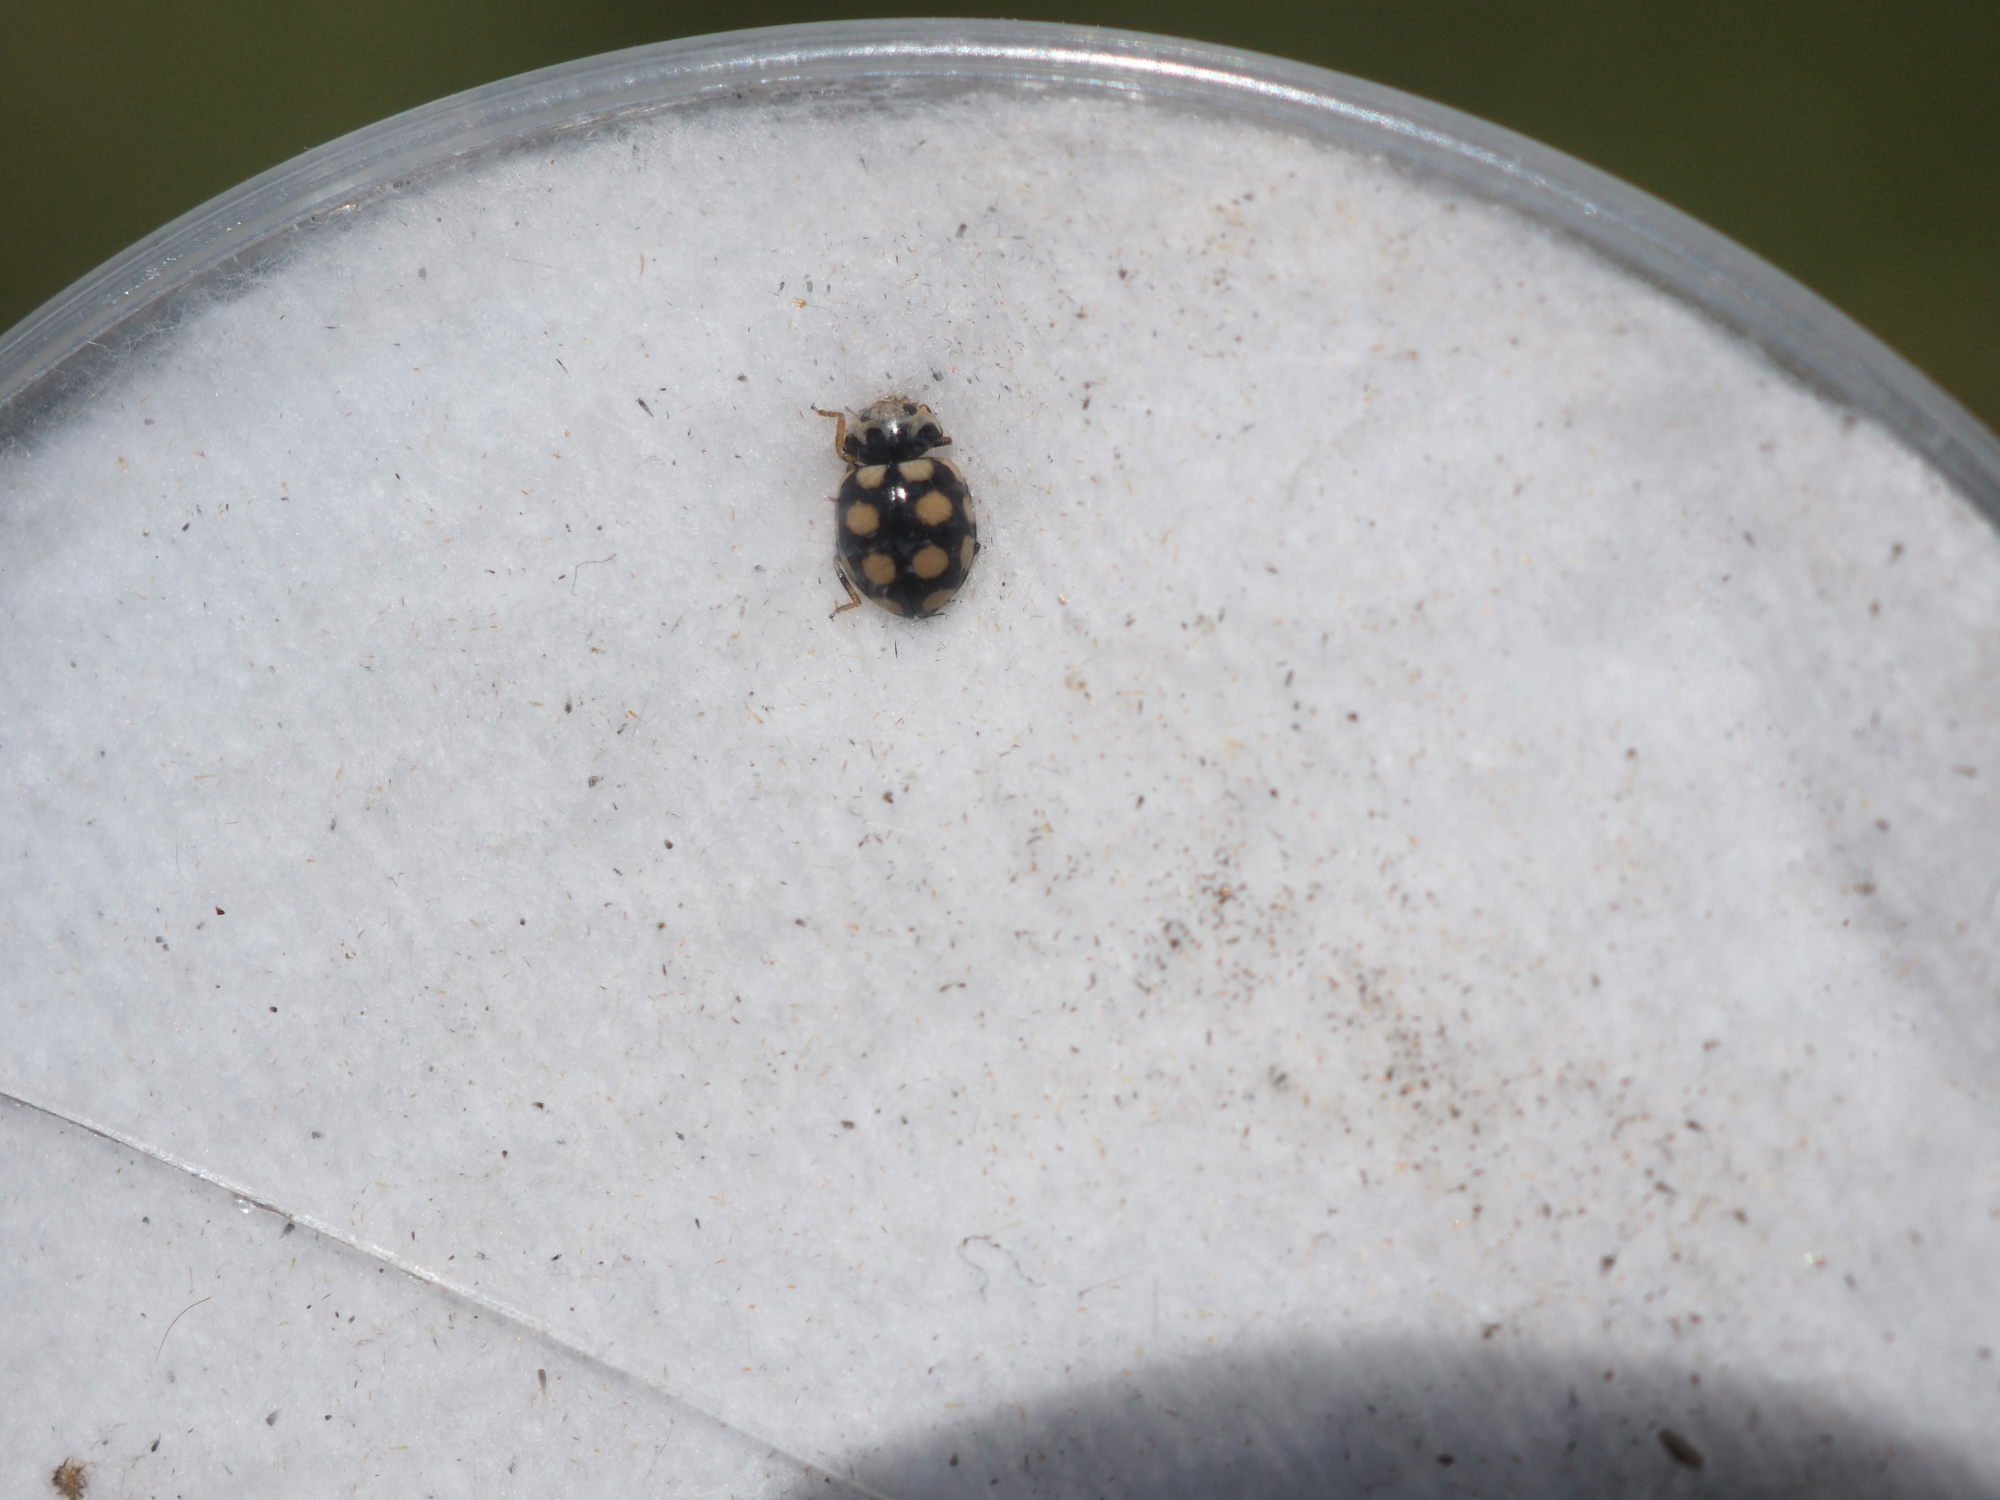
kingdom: Animalia
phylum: Arthropoda
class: Insecta
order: Coleoptera
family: Coccinellidae
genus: Coccinula
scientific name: Coccinula quatuordecimpustulata
